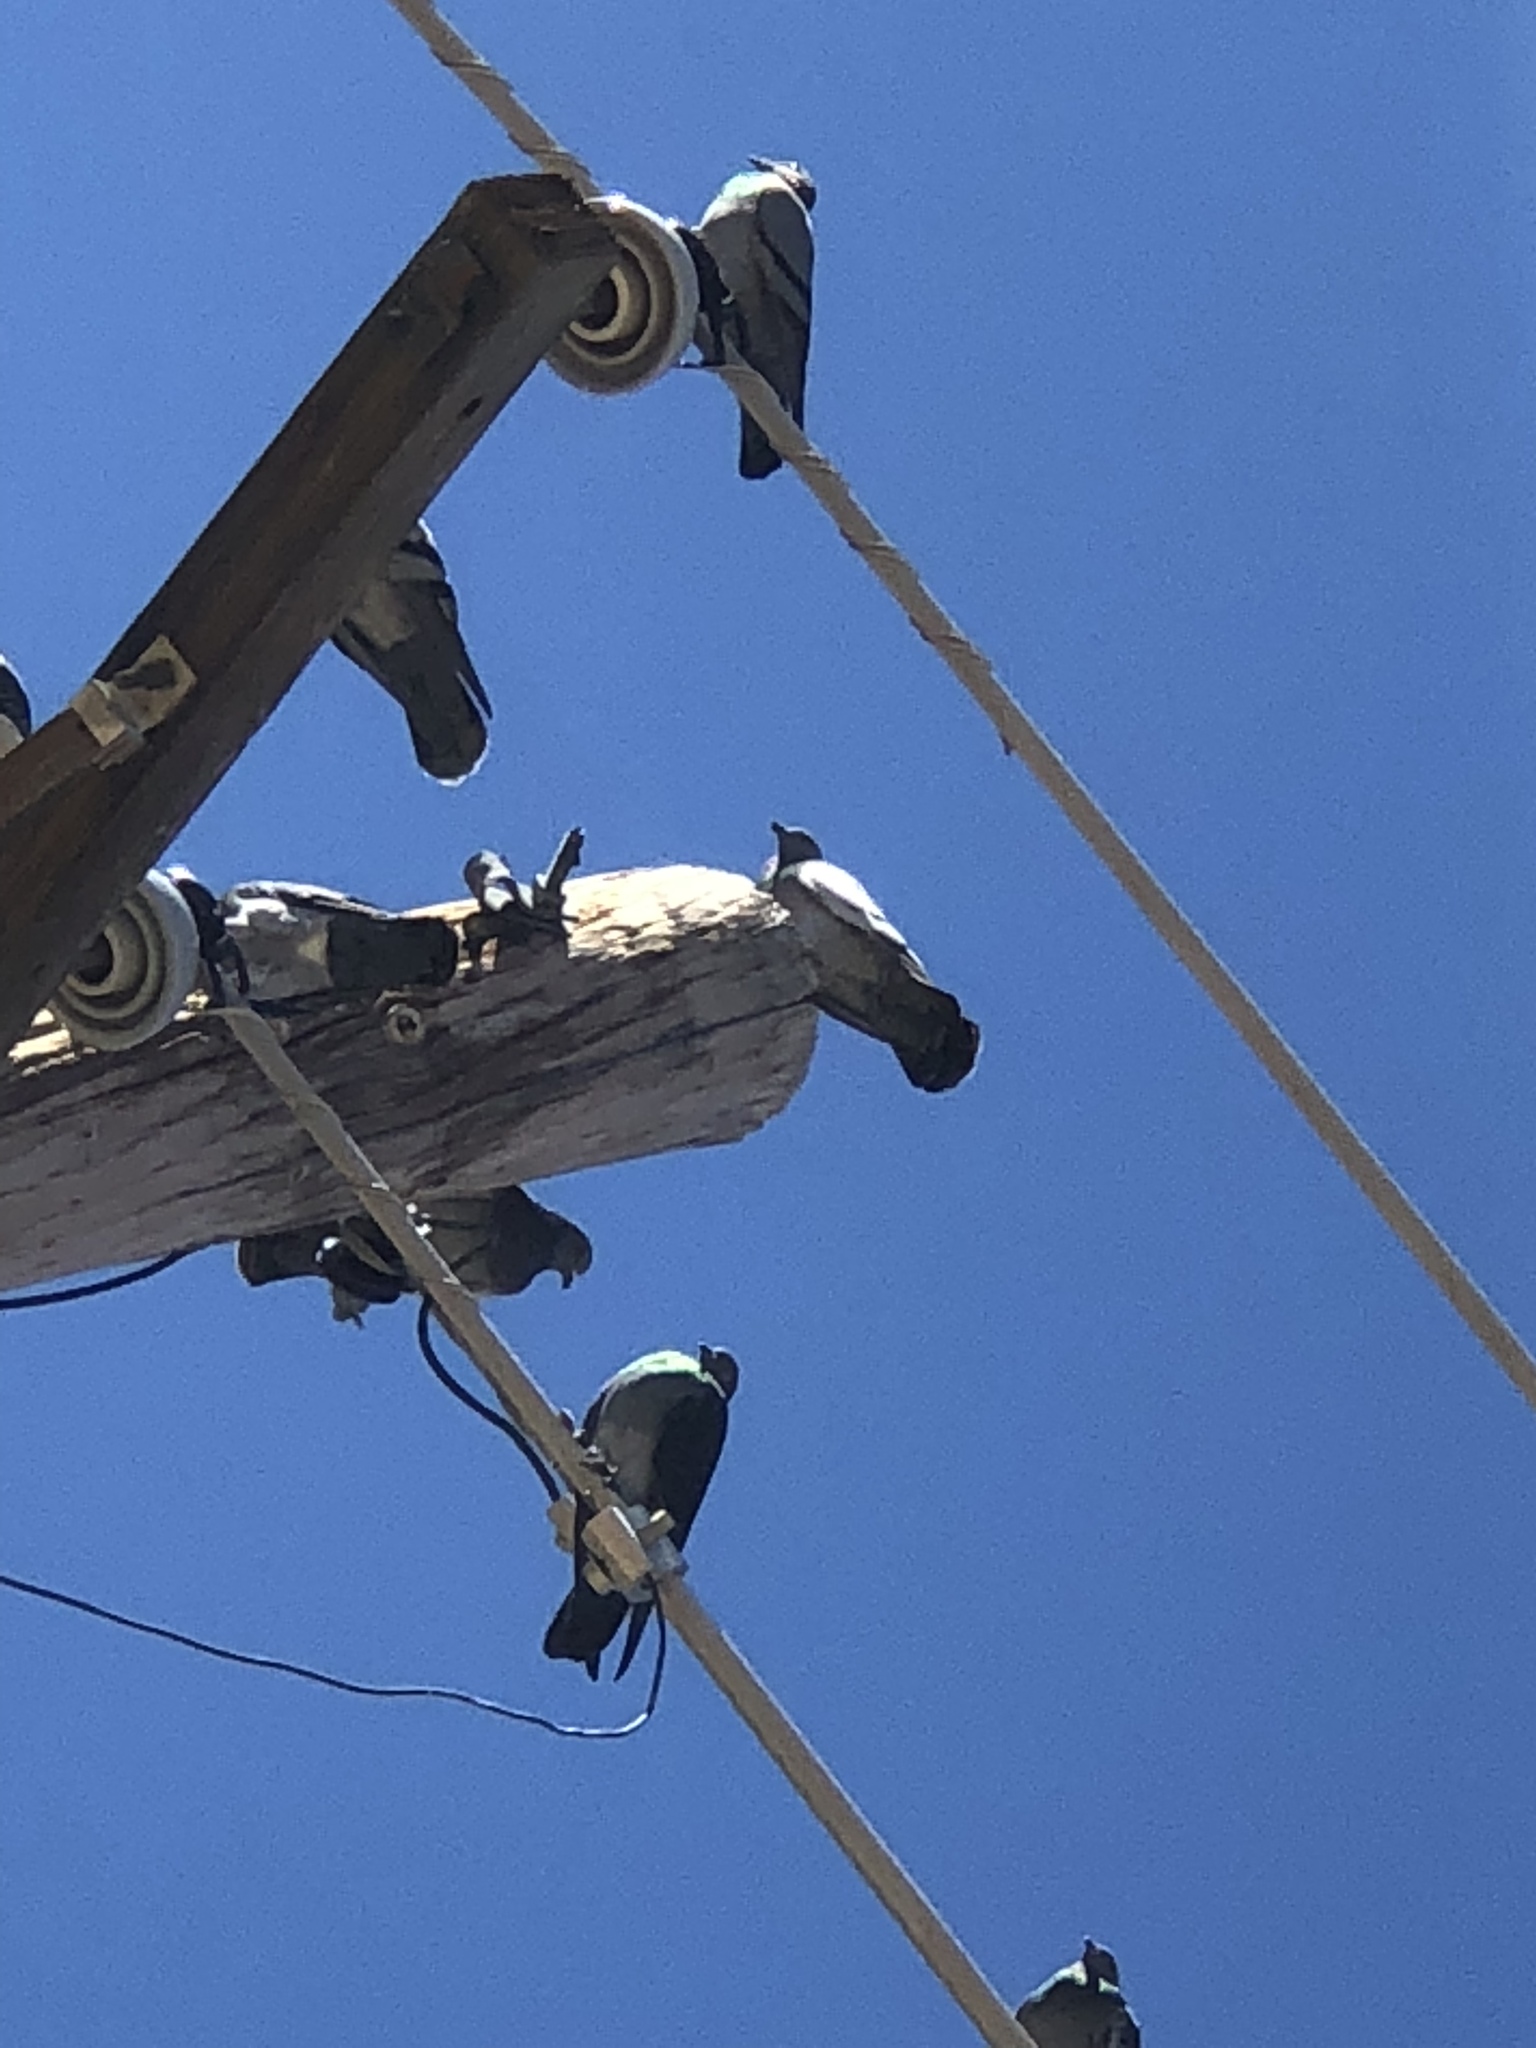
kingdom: Animalia
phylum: Chordata
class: Aves
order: Columbiformes
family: Columbidae
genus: Columba
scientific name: Columba livia
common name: Rock pigeon
